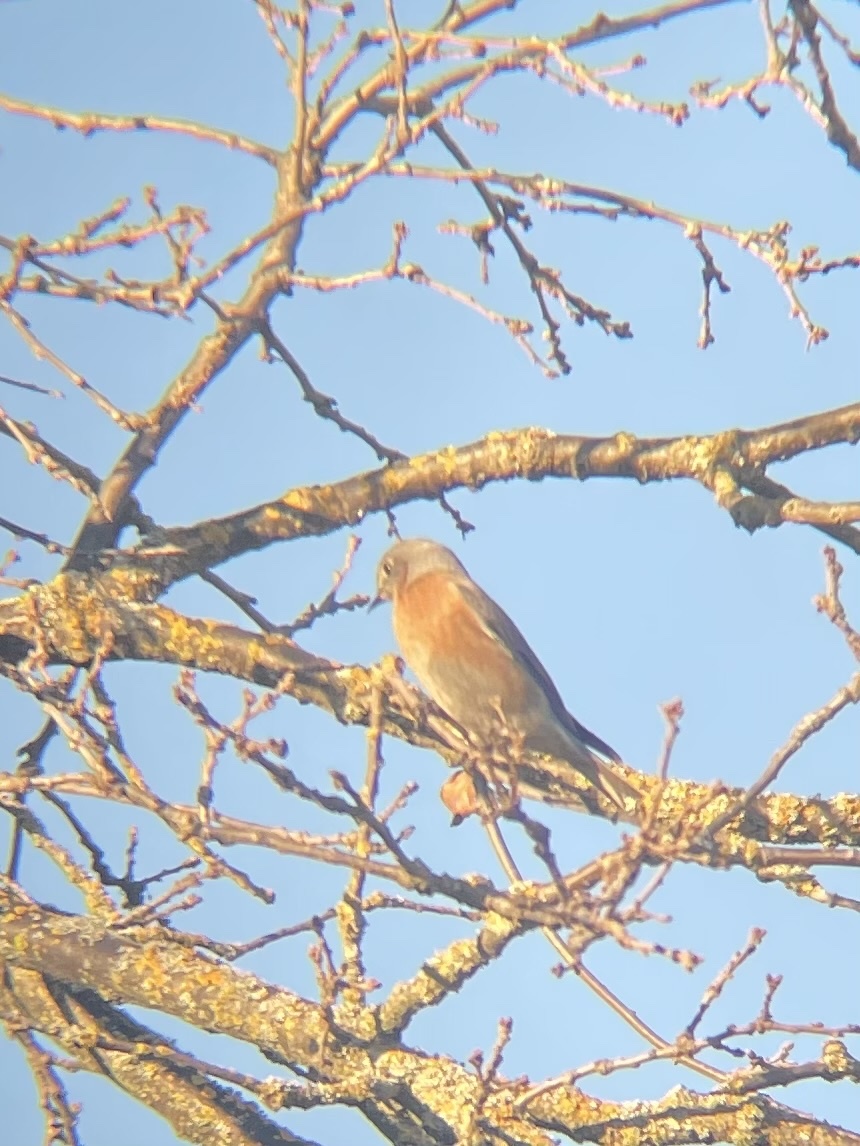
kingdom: Animalia
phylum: Chordata
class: Aves
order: Passeriformes
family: Turdidae
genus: Sialia
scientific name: Sialia mexicana
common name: Western bluebird
